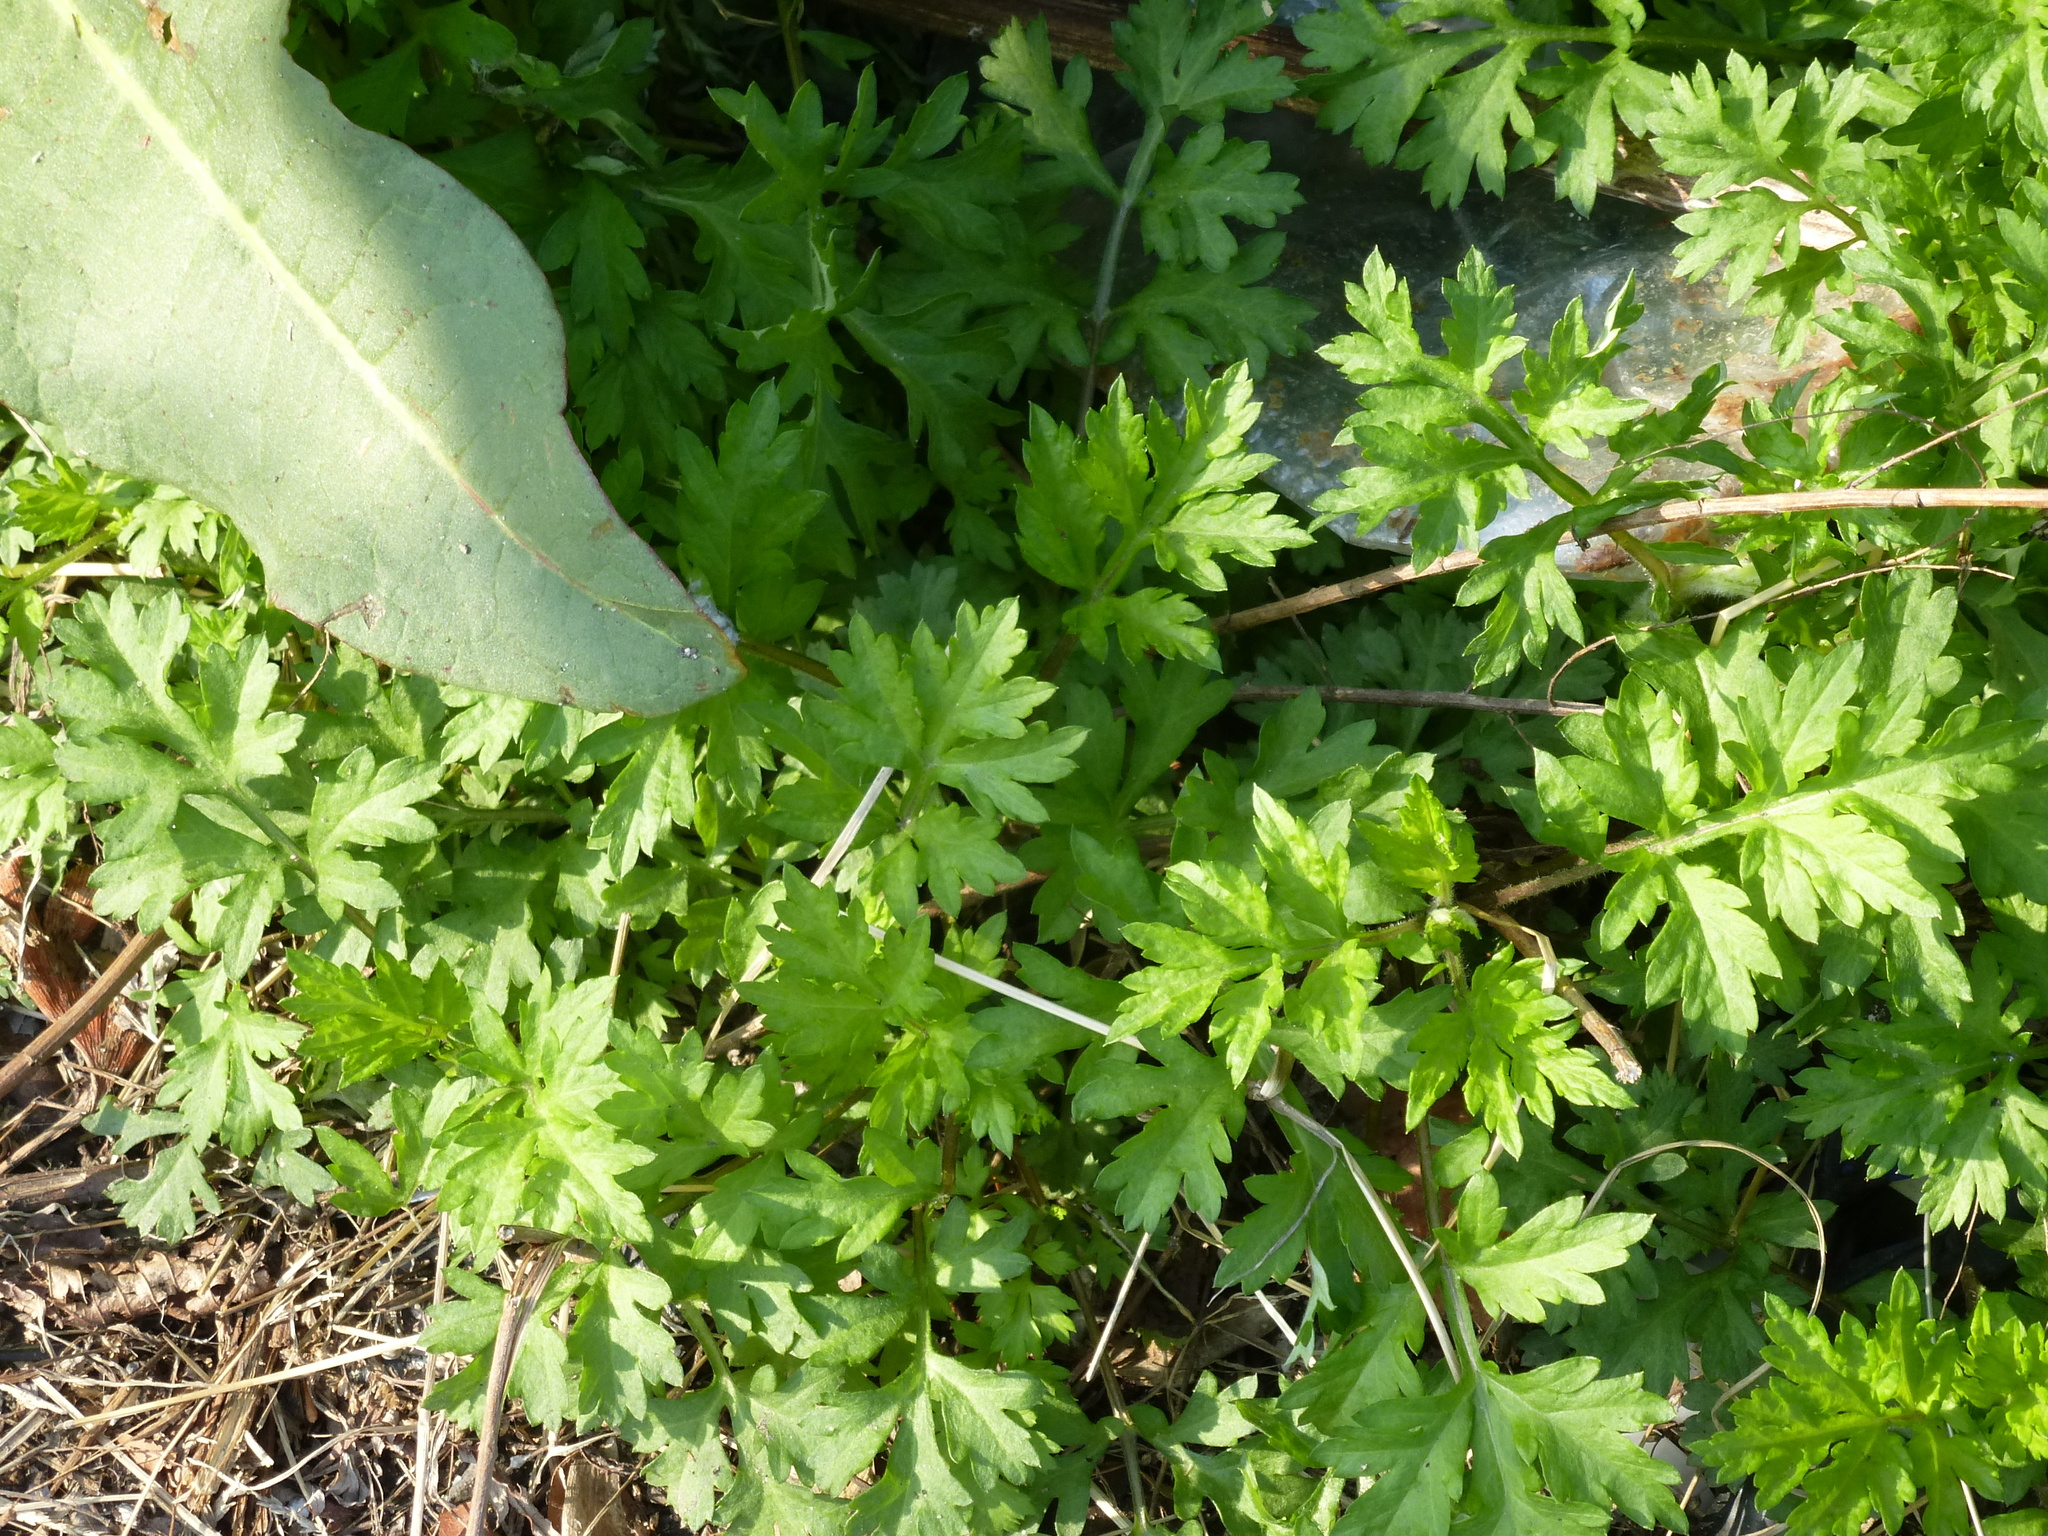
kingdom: Plantae
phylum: Tracheophyta
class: Magnoliopsida
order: Asterales
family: Asteraceae
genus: Artemisia
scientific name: Artemisia vulgaris
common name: Mugwort
